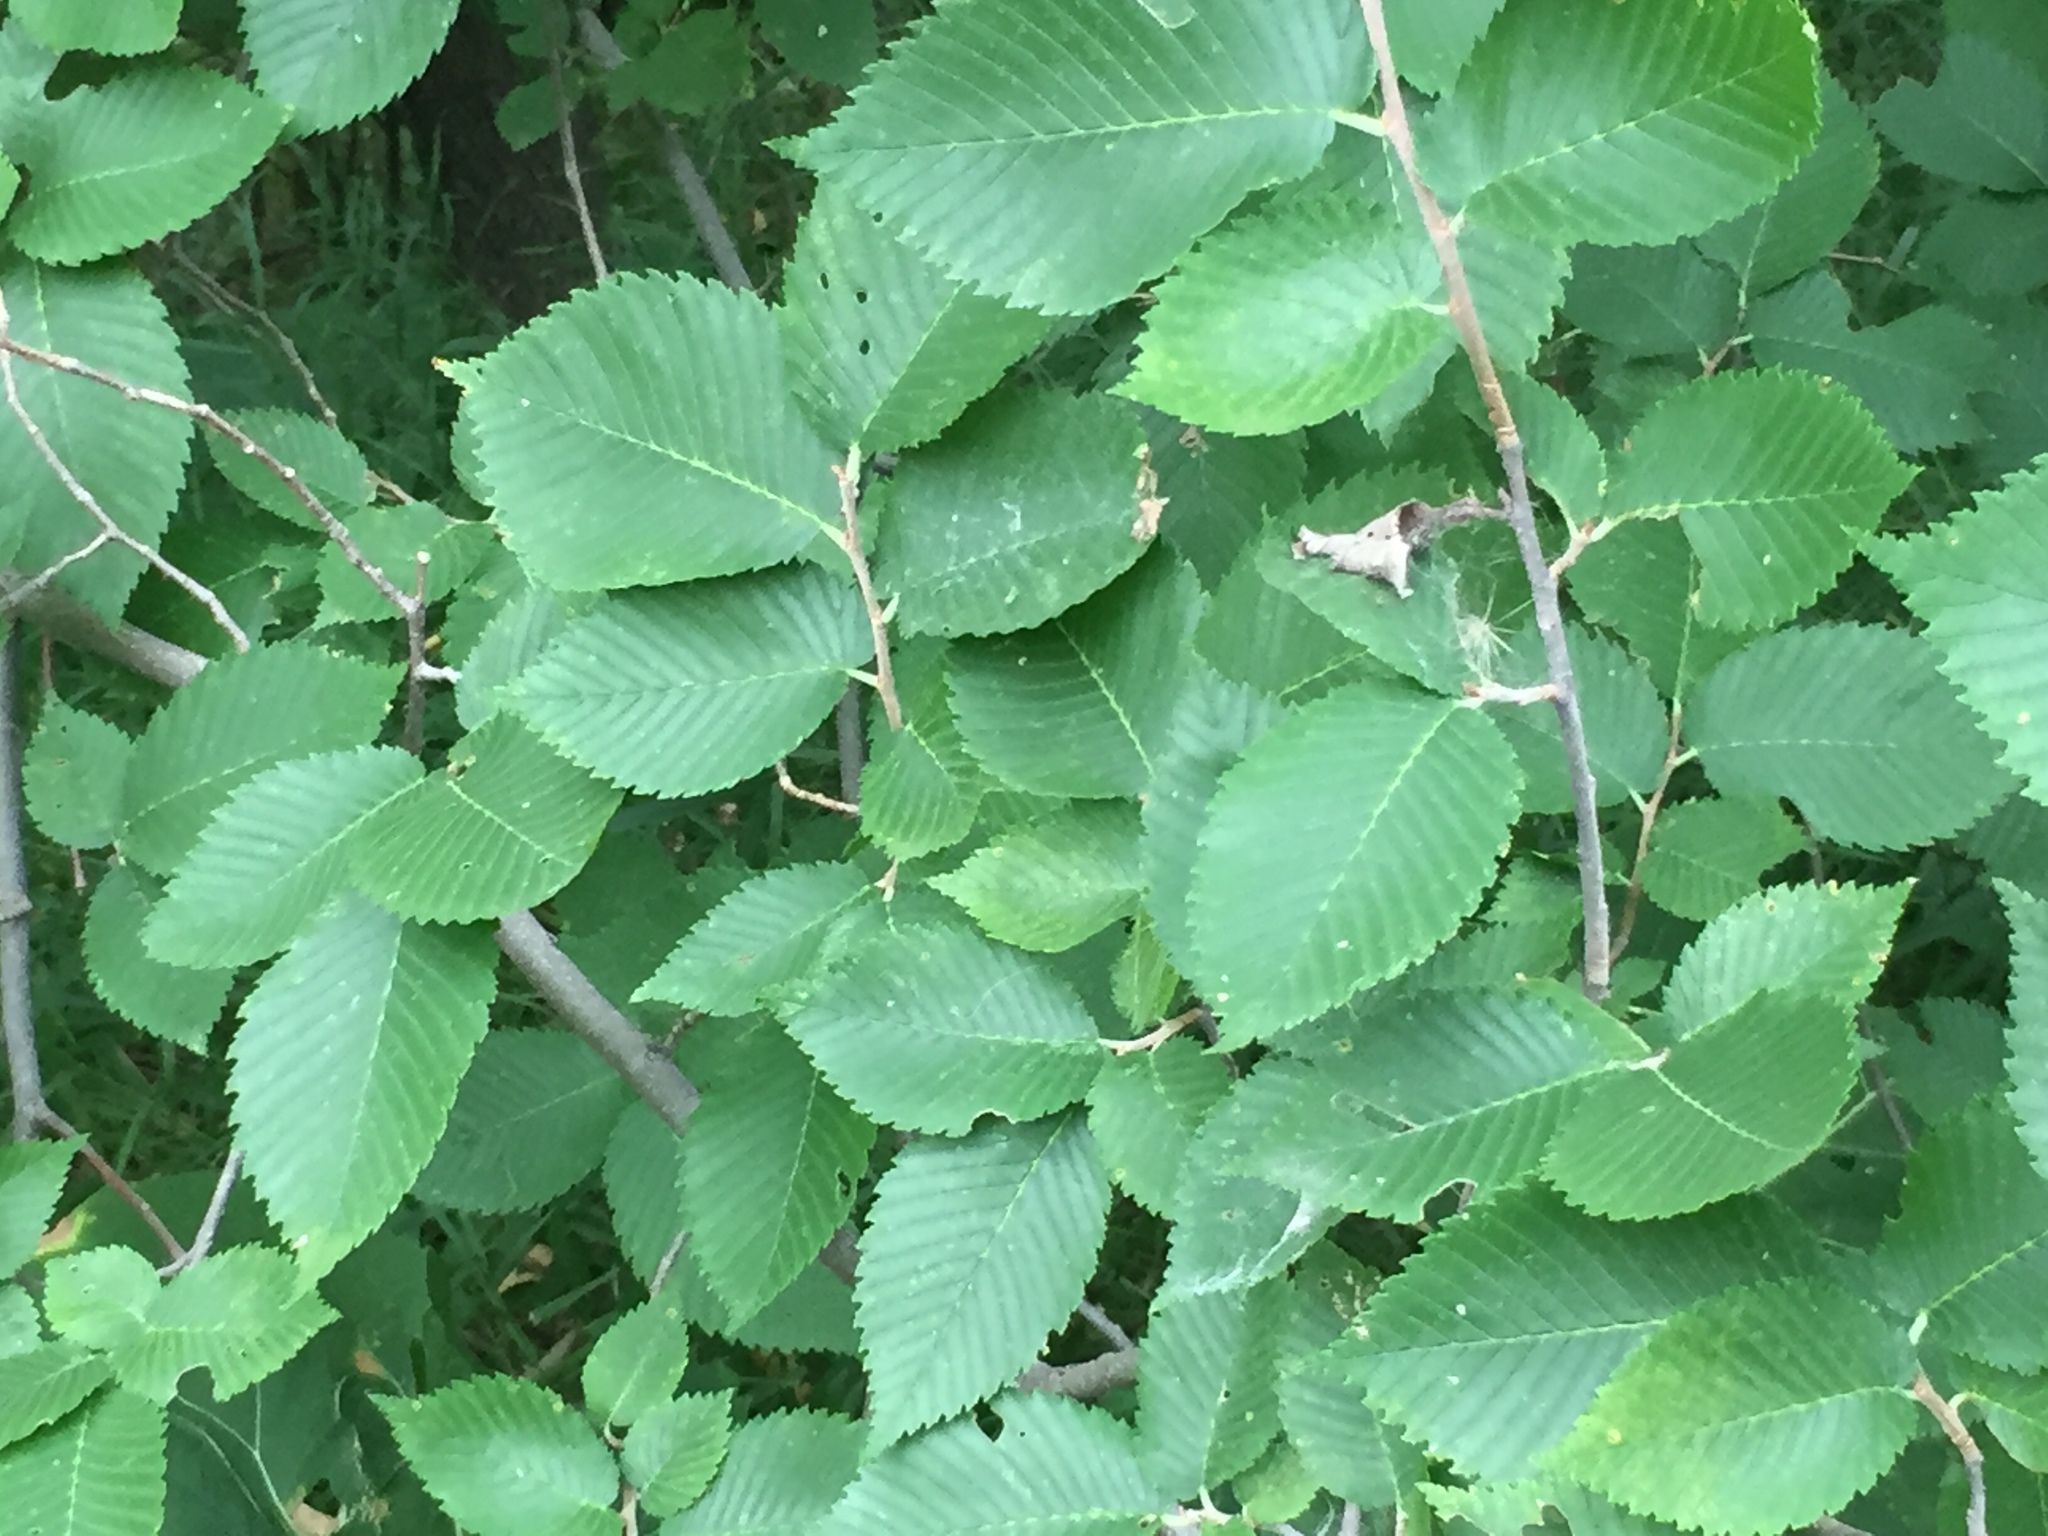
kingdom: Plantae
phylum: Tracheophyta
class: Magnoliopsida
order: Rosales
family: Ulmaceae
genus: Ulmus
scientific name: Ulmus americana
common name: American elm
